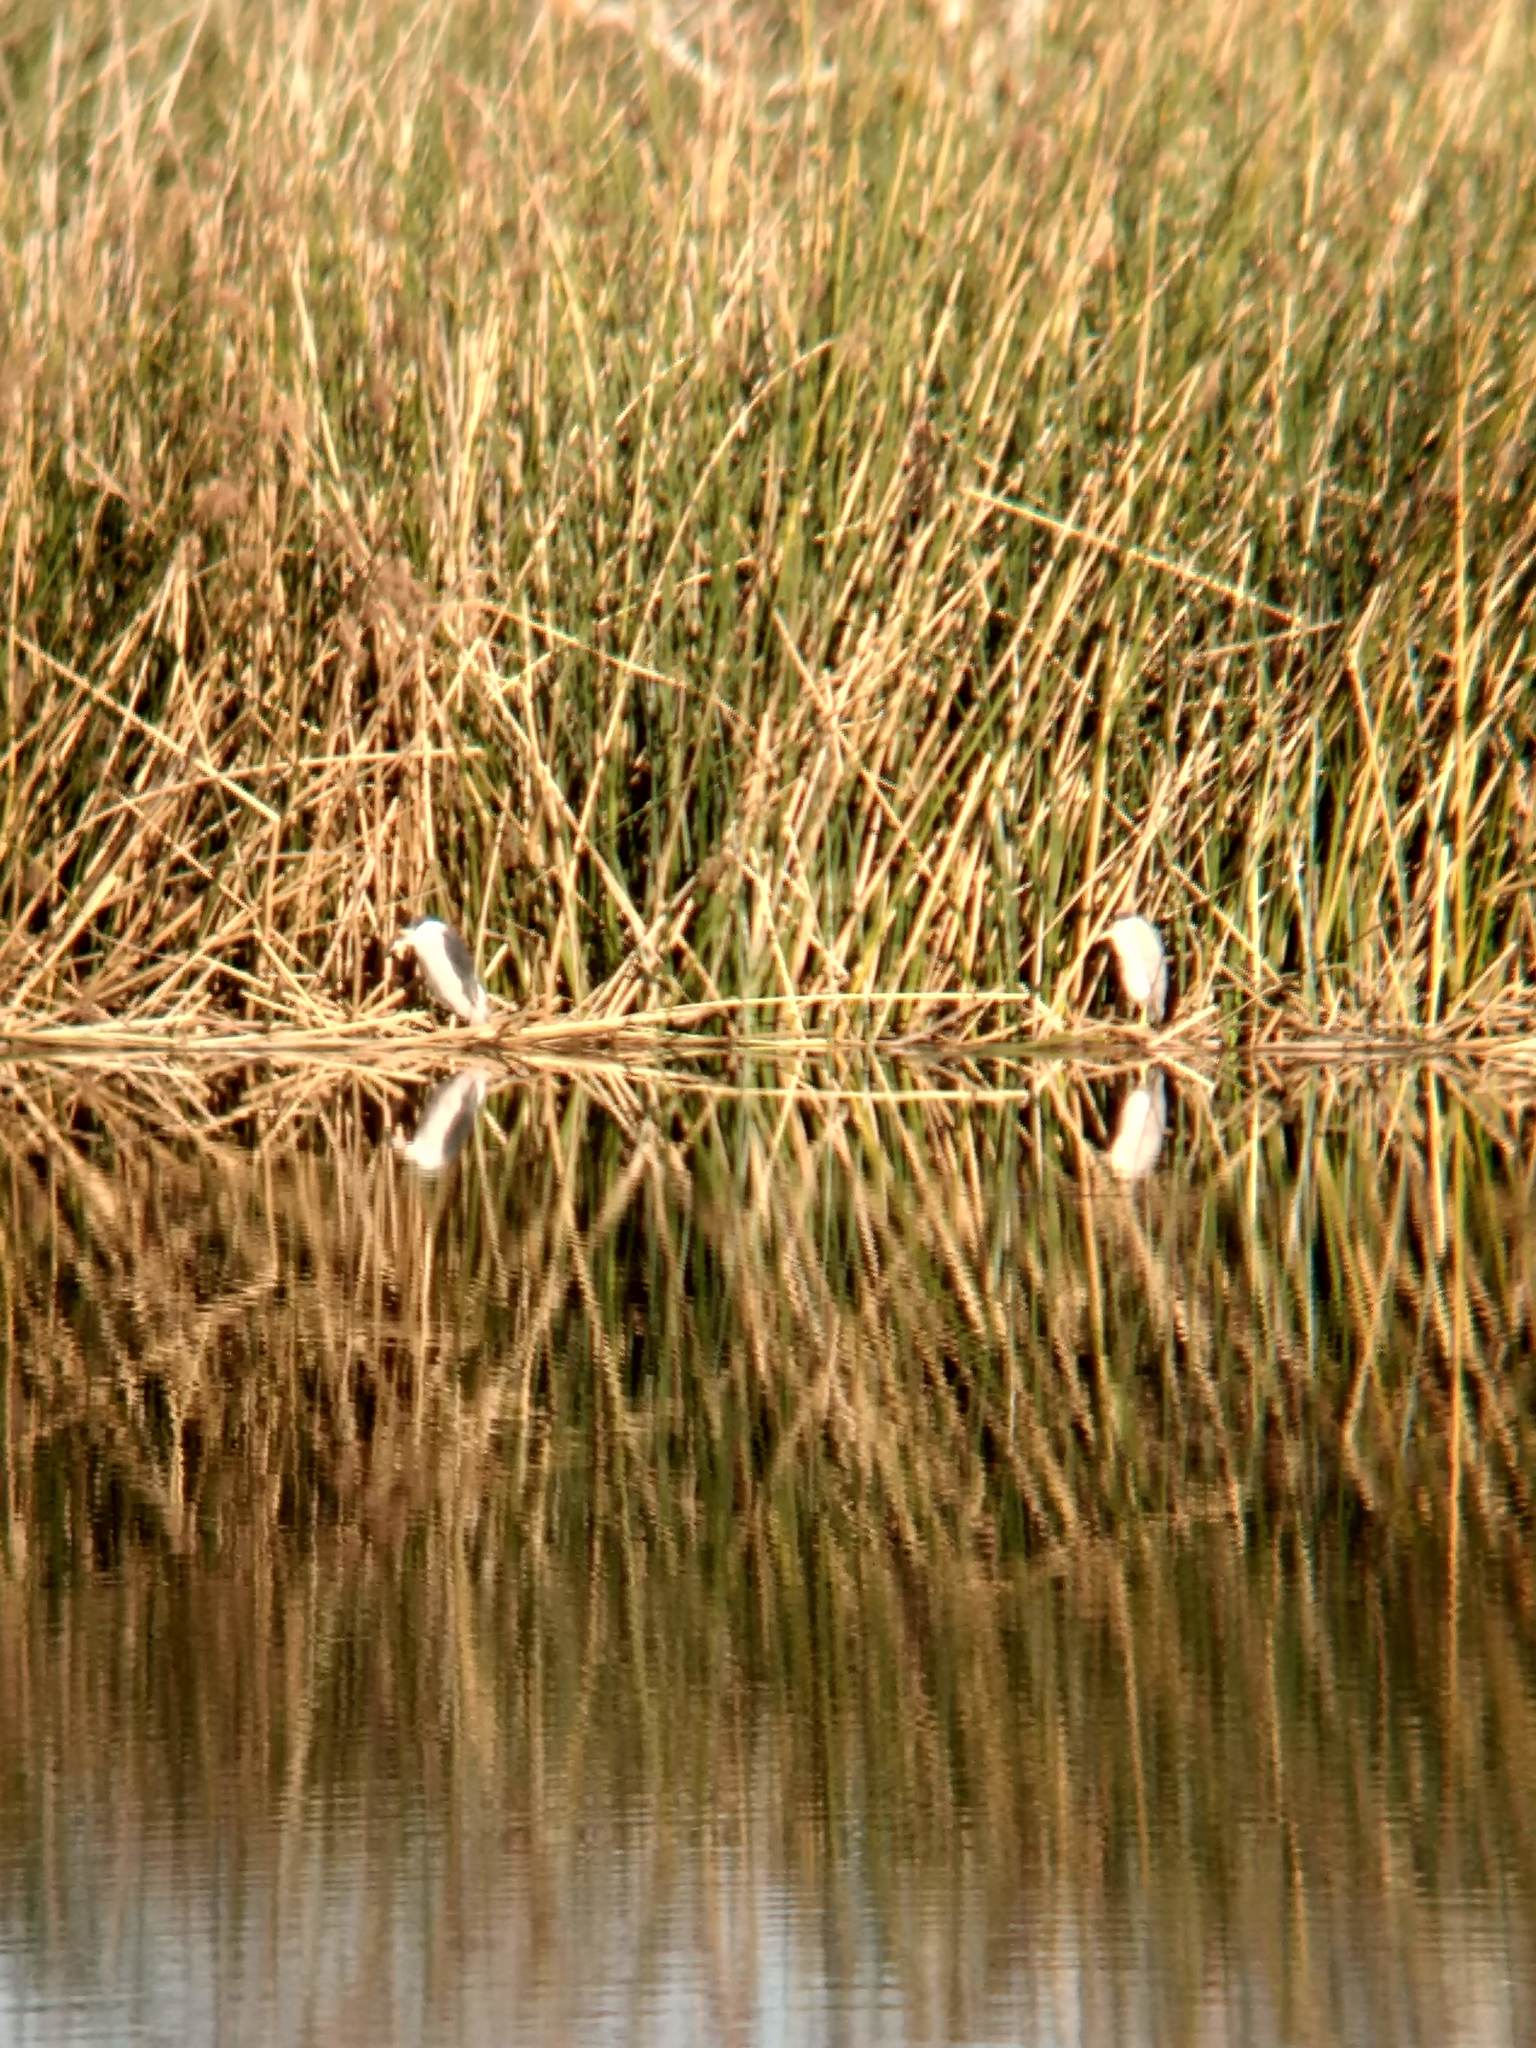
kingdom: Animalia
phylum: Chordata
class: Aves
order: Pelecaniformes
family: Ardeidae
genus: Nycticorax
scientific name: Nycticorax nycticorax
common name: Black-crowned night heron
